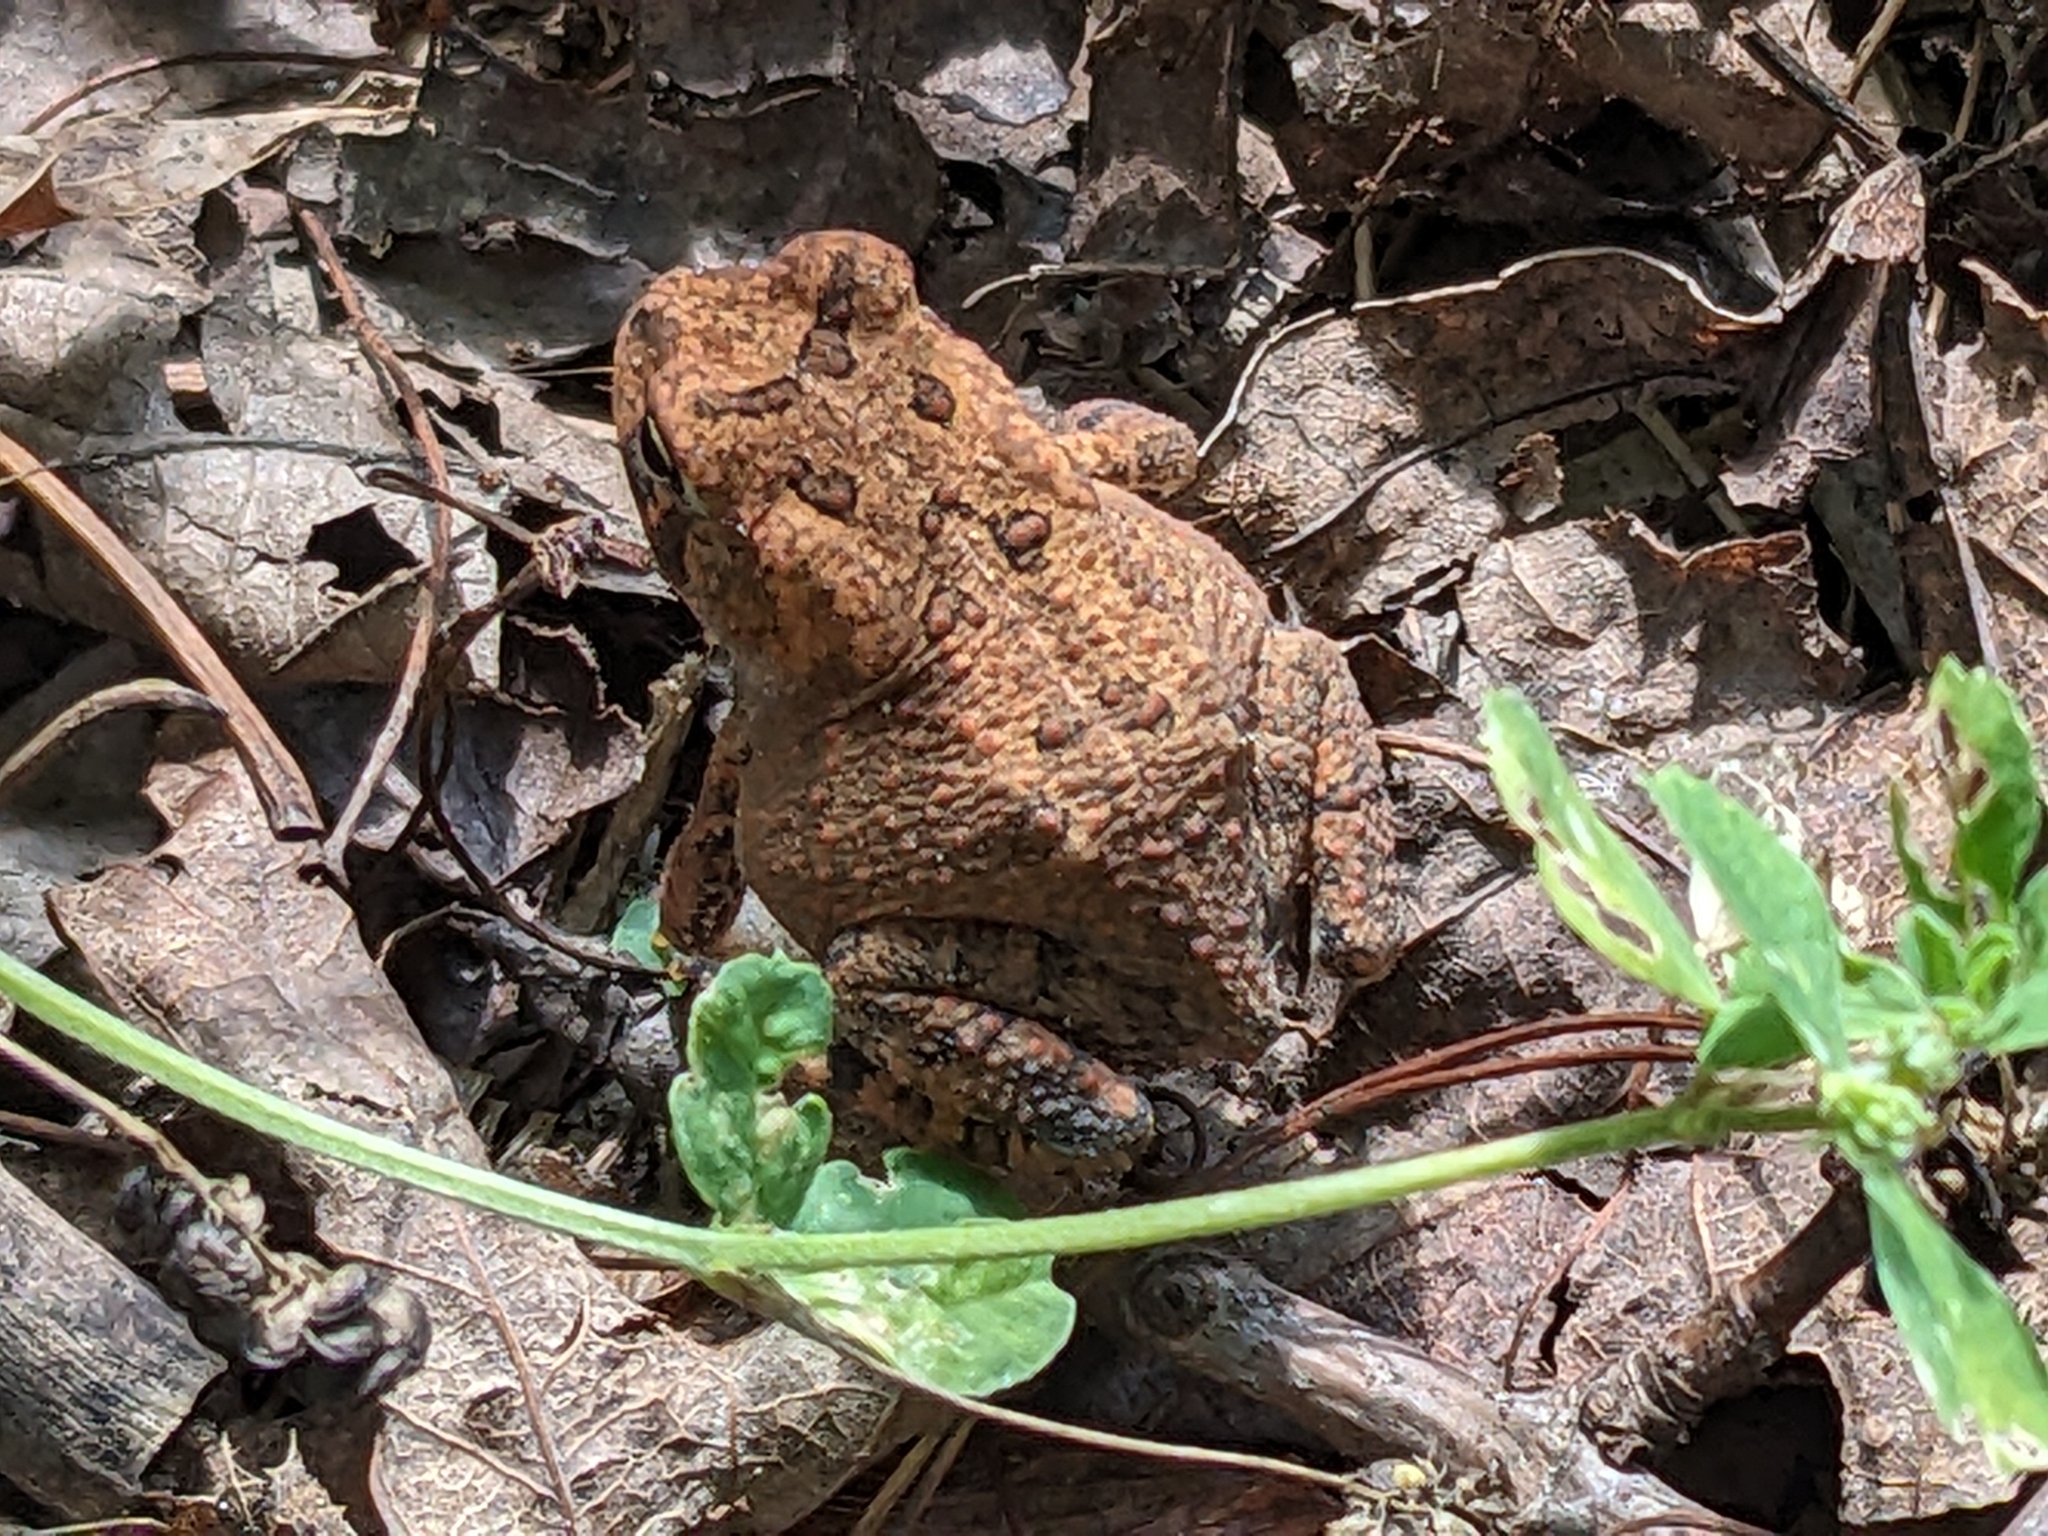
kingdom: Animalia
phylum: Chordata
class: Amphibia
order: Anura
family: Bufonidae
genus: Anaxyrus
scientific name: Anaxyrus americanus
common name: American toad
